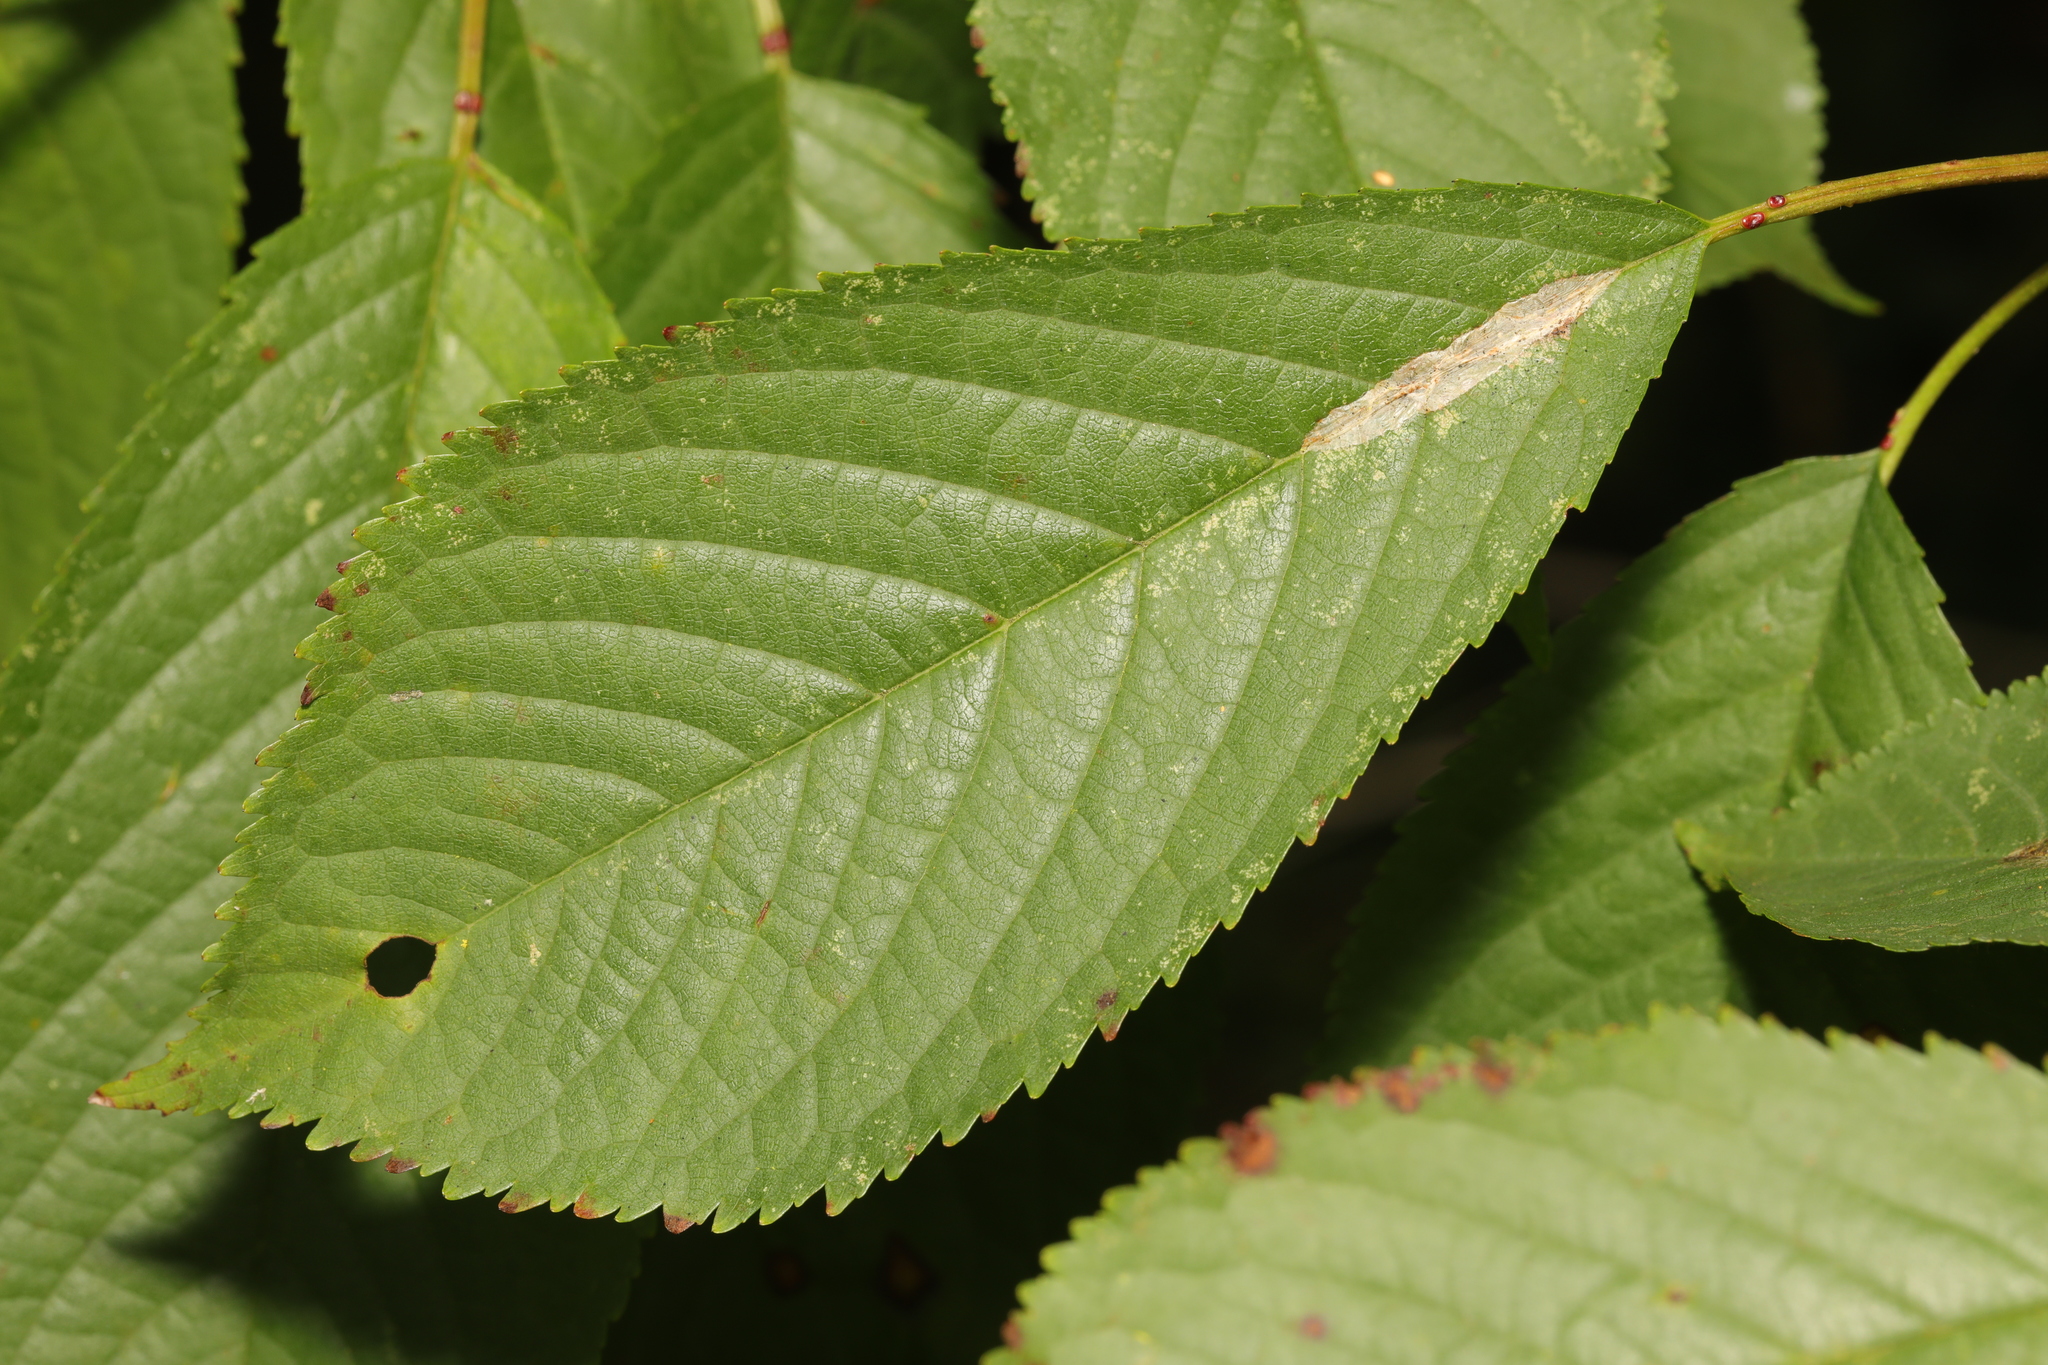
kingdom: Animalia
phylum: Arthropoda
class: Insecta
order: Lepidoptera
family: Gracillariidae
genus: Phyllonorycter
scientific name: Phyllonorycter leucographella
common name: Firethorn leaf-miner
